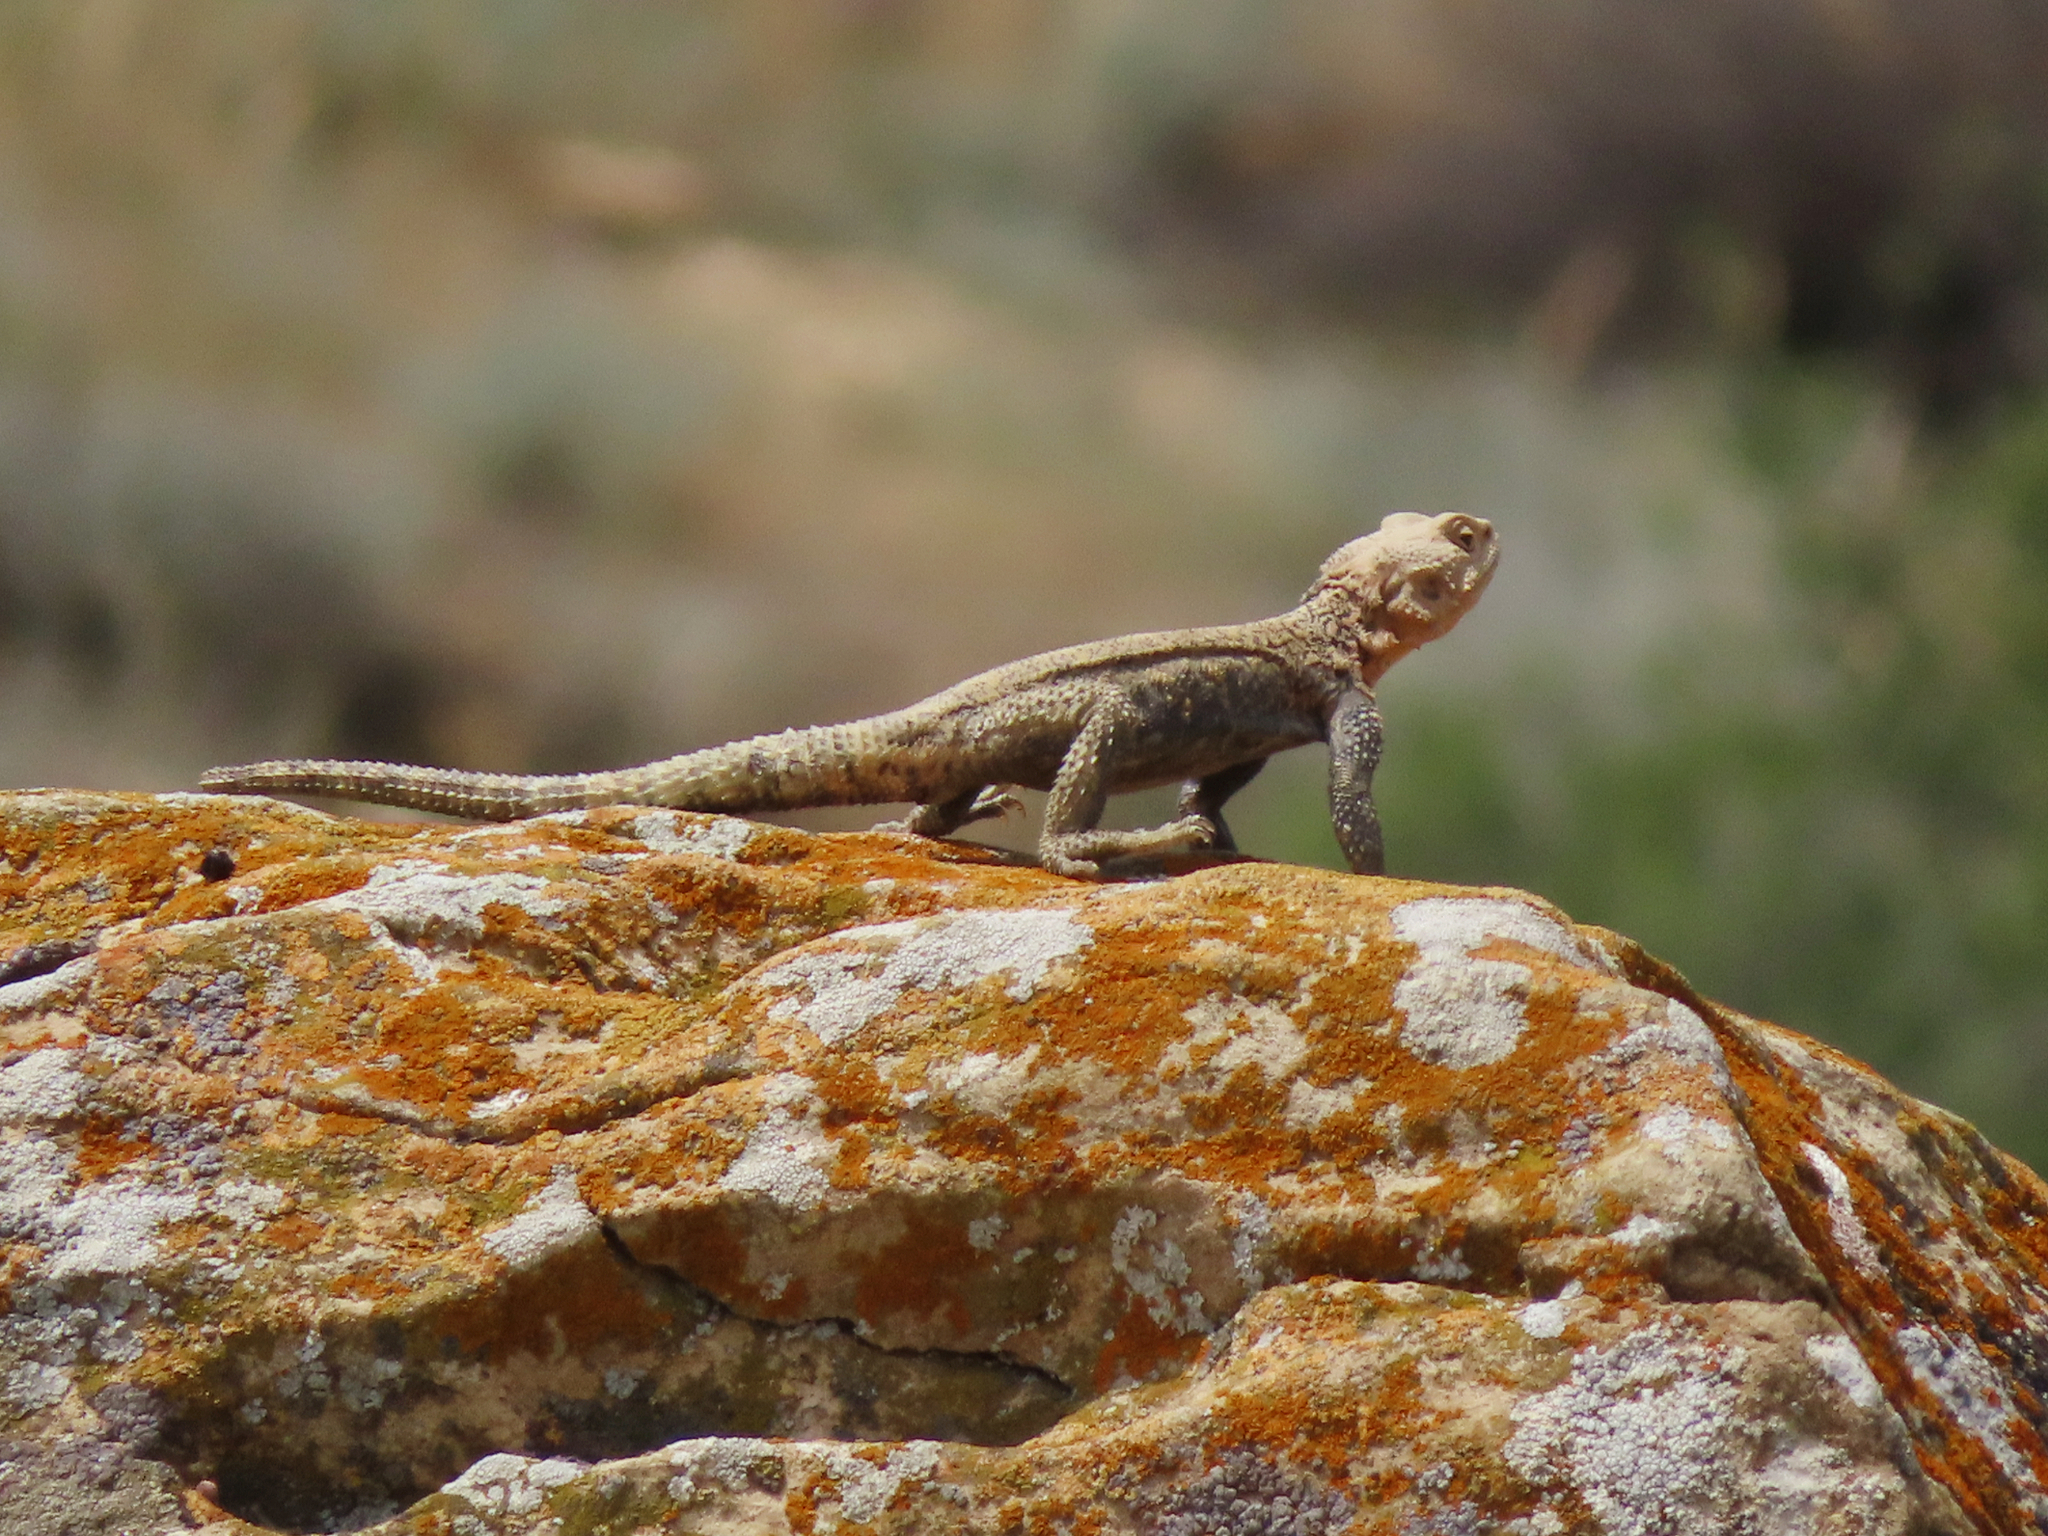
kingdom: Animalia
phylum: Chordata
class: Squamata
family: Agamidae
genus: Paralaudakia
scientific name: Paralaudakia caucasia
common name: Caucasian agama
